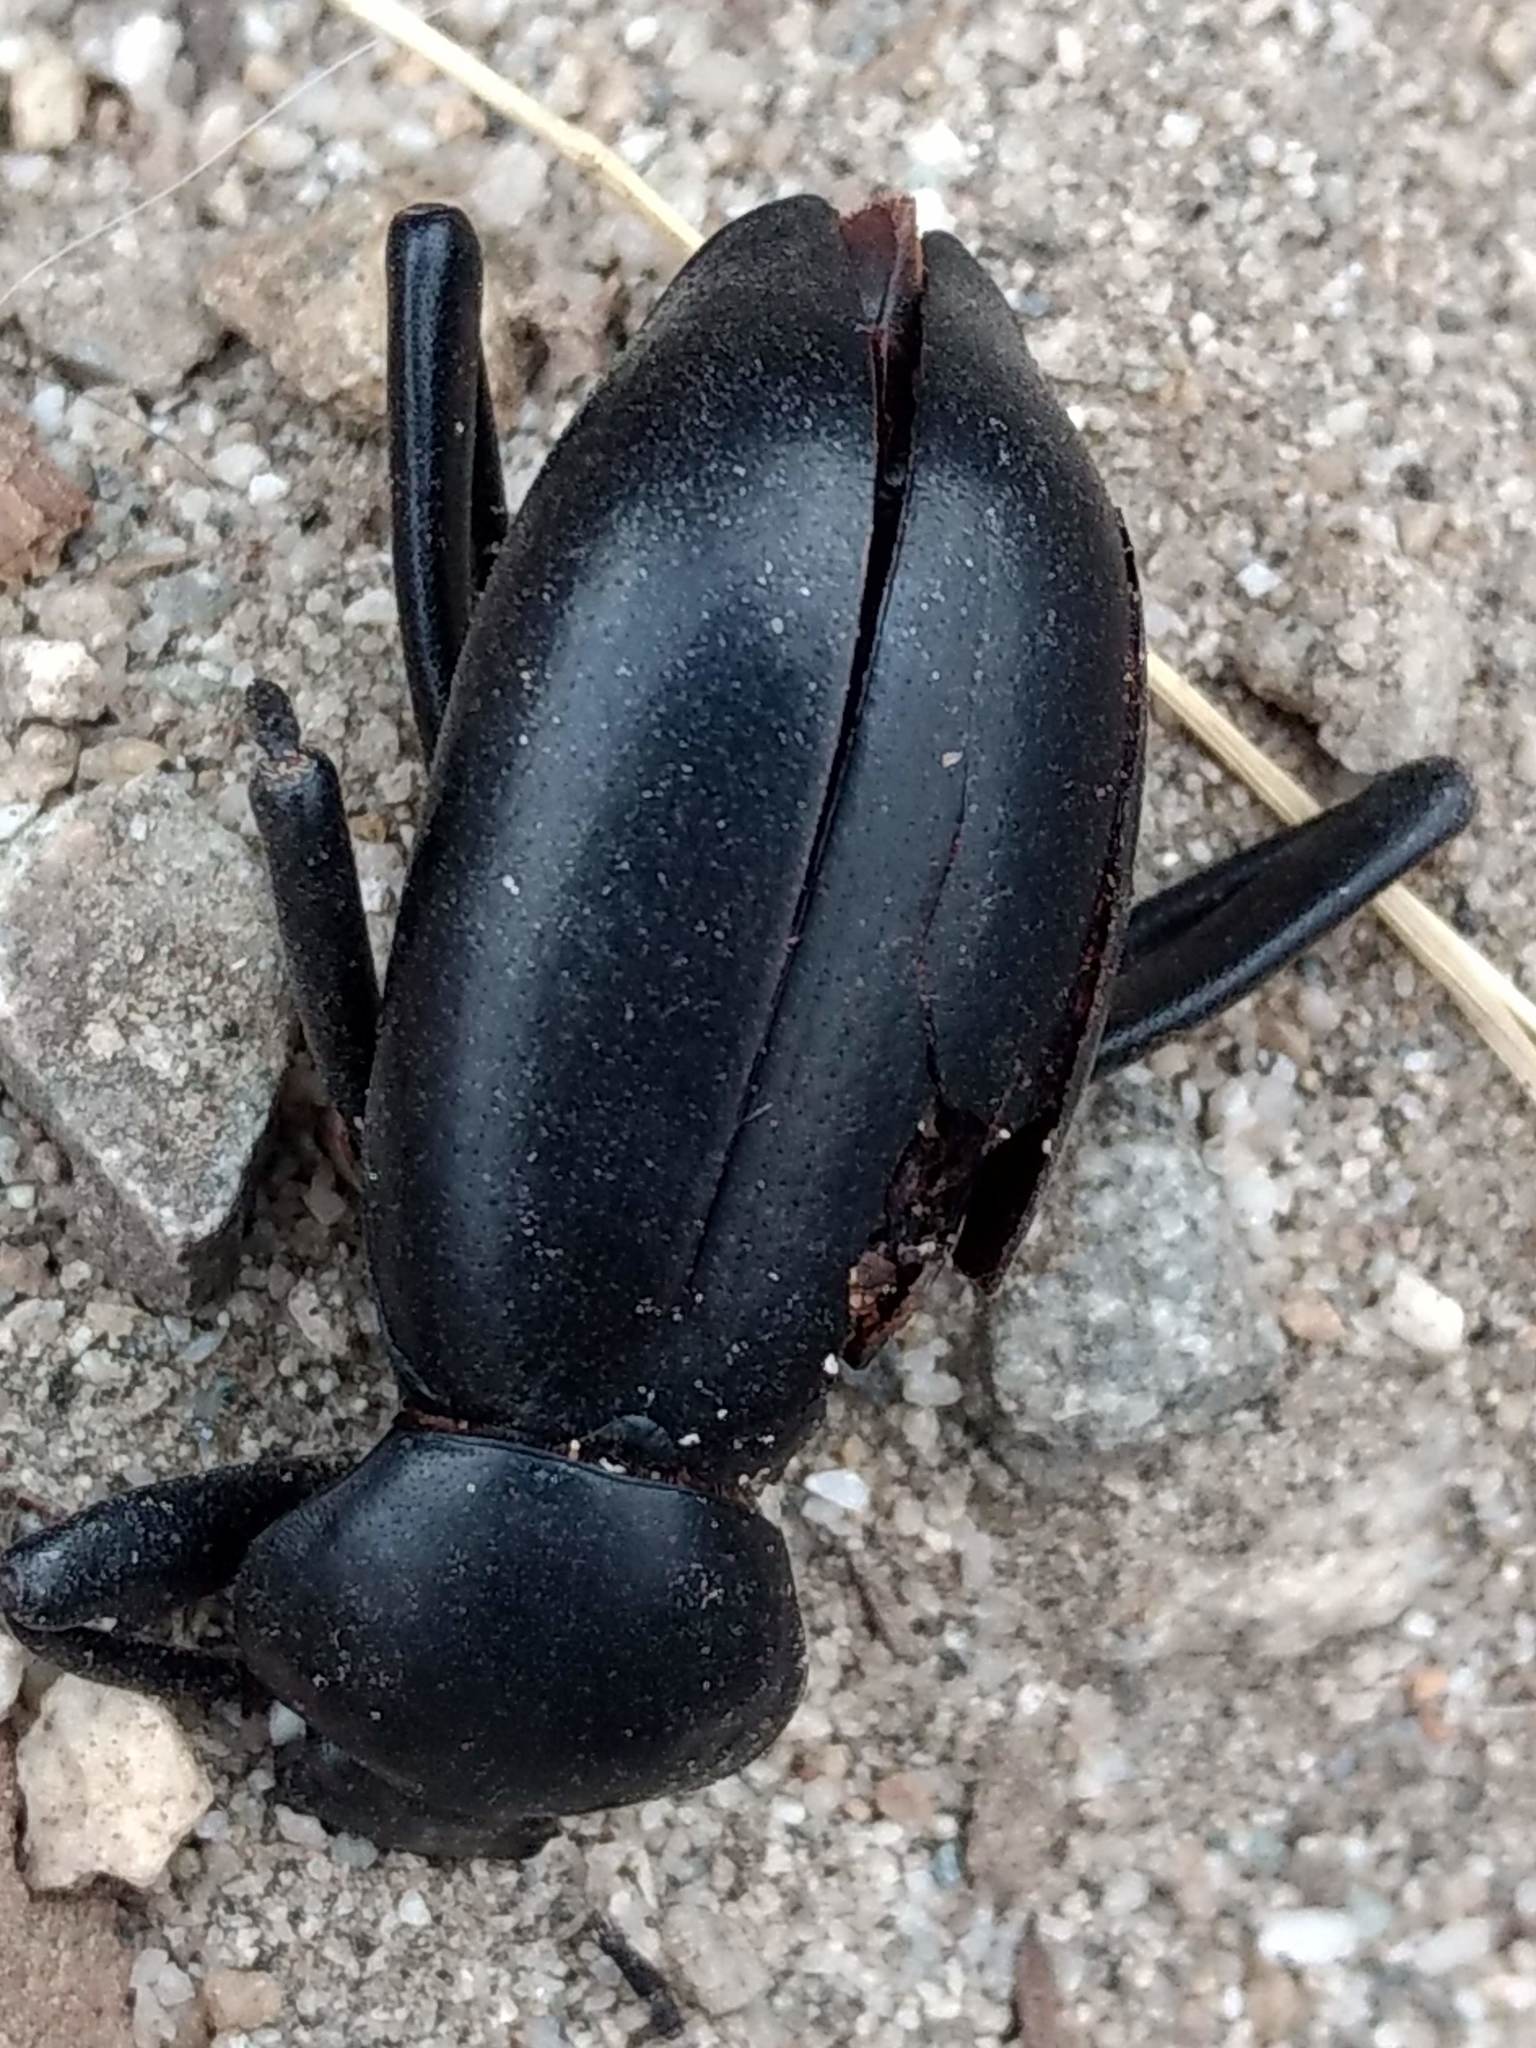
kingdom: Animalia
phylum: Arthropoda
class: Insecta
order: Coleoptera
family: Tenebrionidae
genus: Eleodes
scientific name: Eleodes grandicollis
